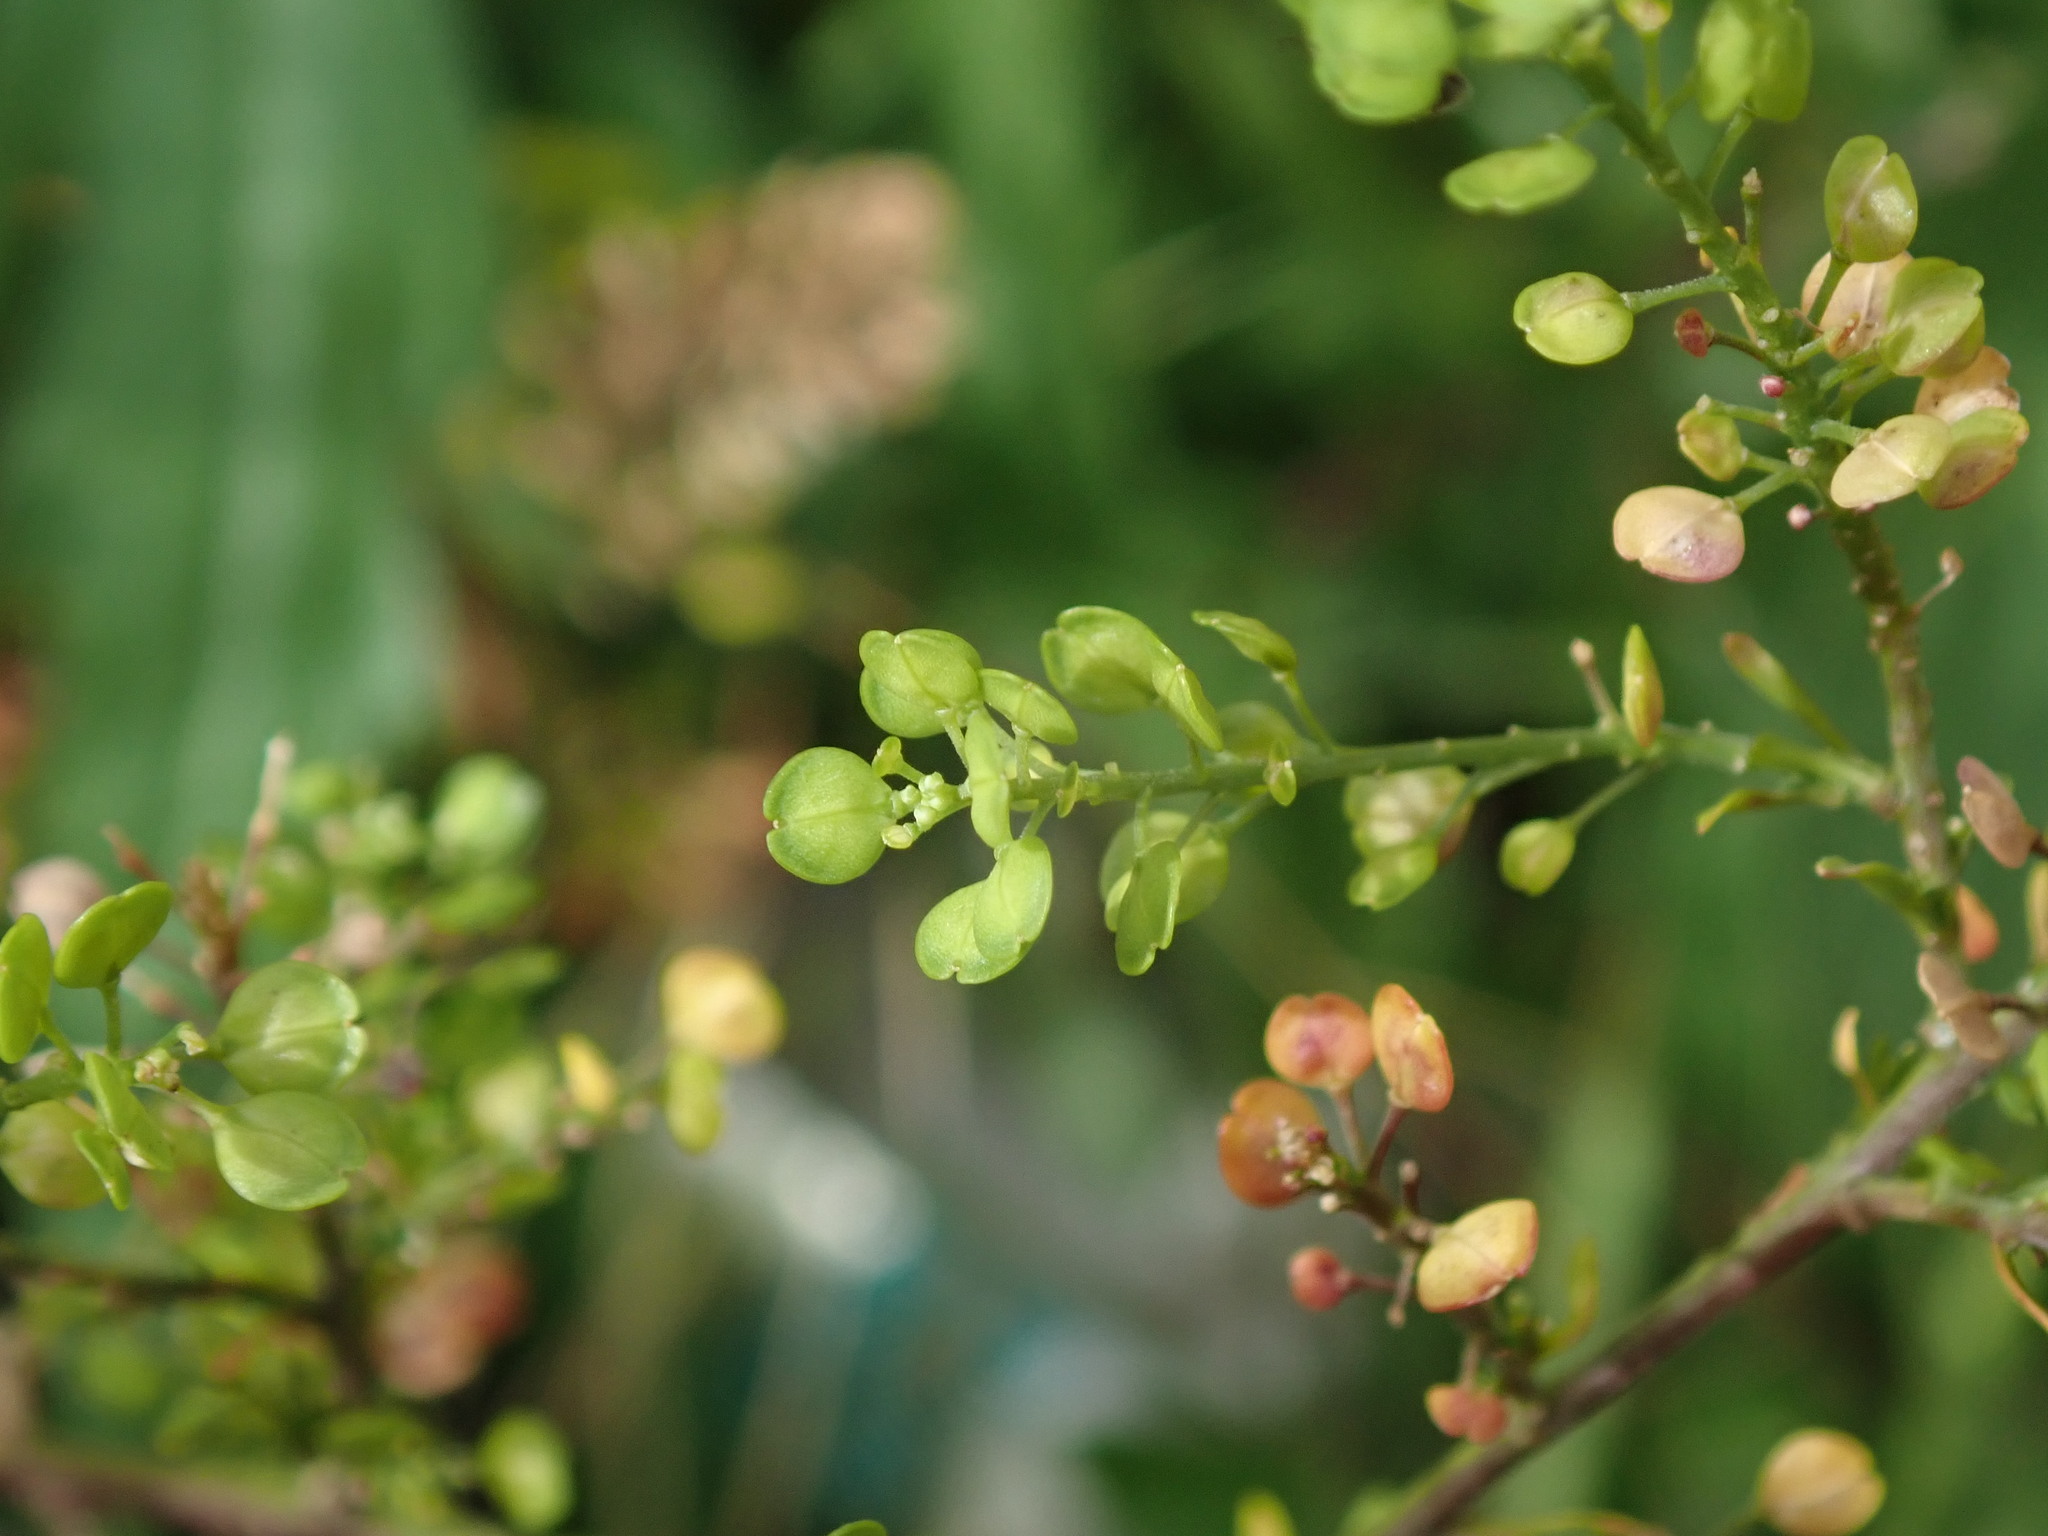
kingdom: Plantae
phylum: Tracheophyta
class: Magnoliopsida
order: Brassicales
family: Brassicaceae
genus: Lepidium
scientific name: Lepidium virginicum
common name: Least pepperwort
